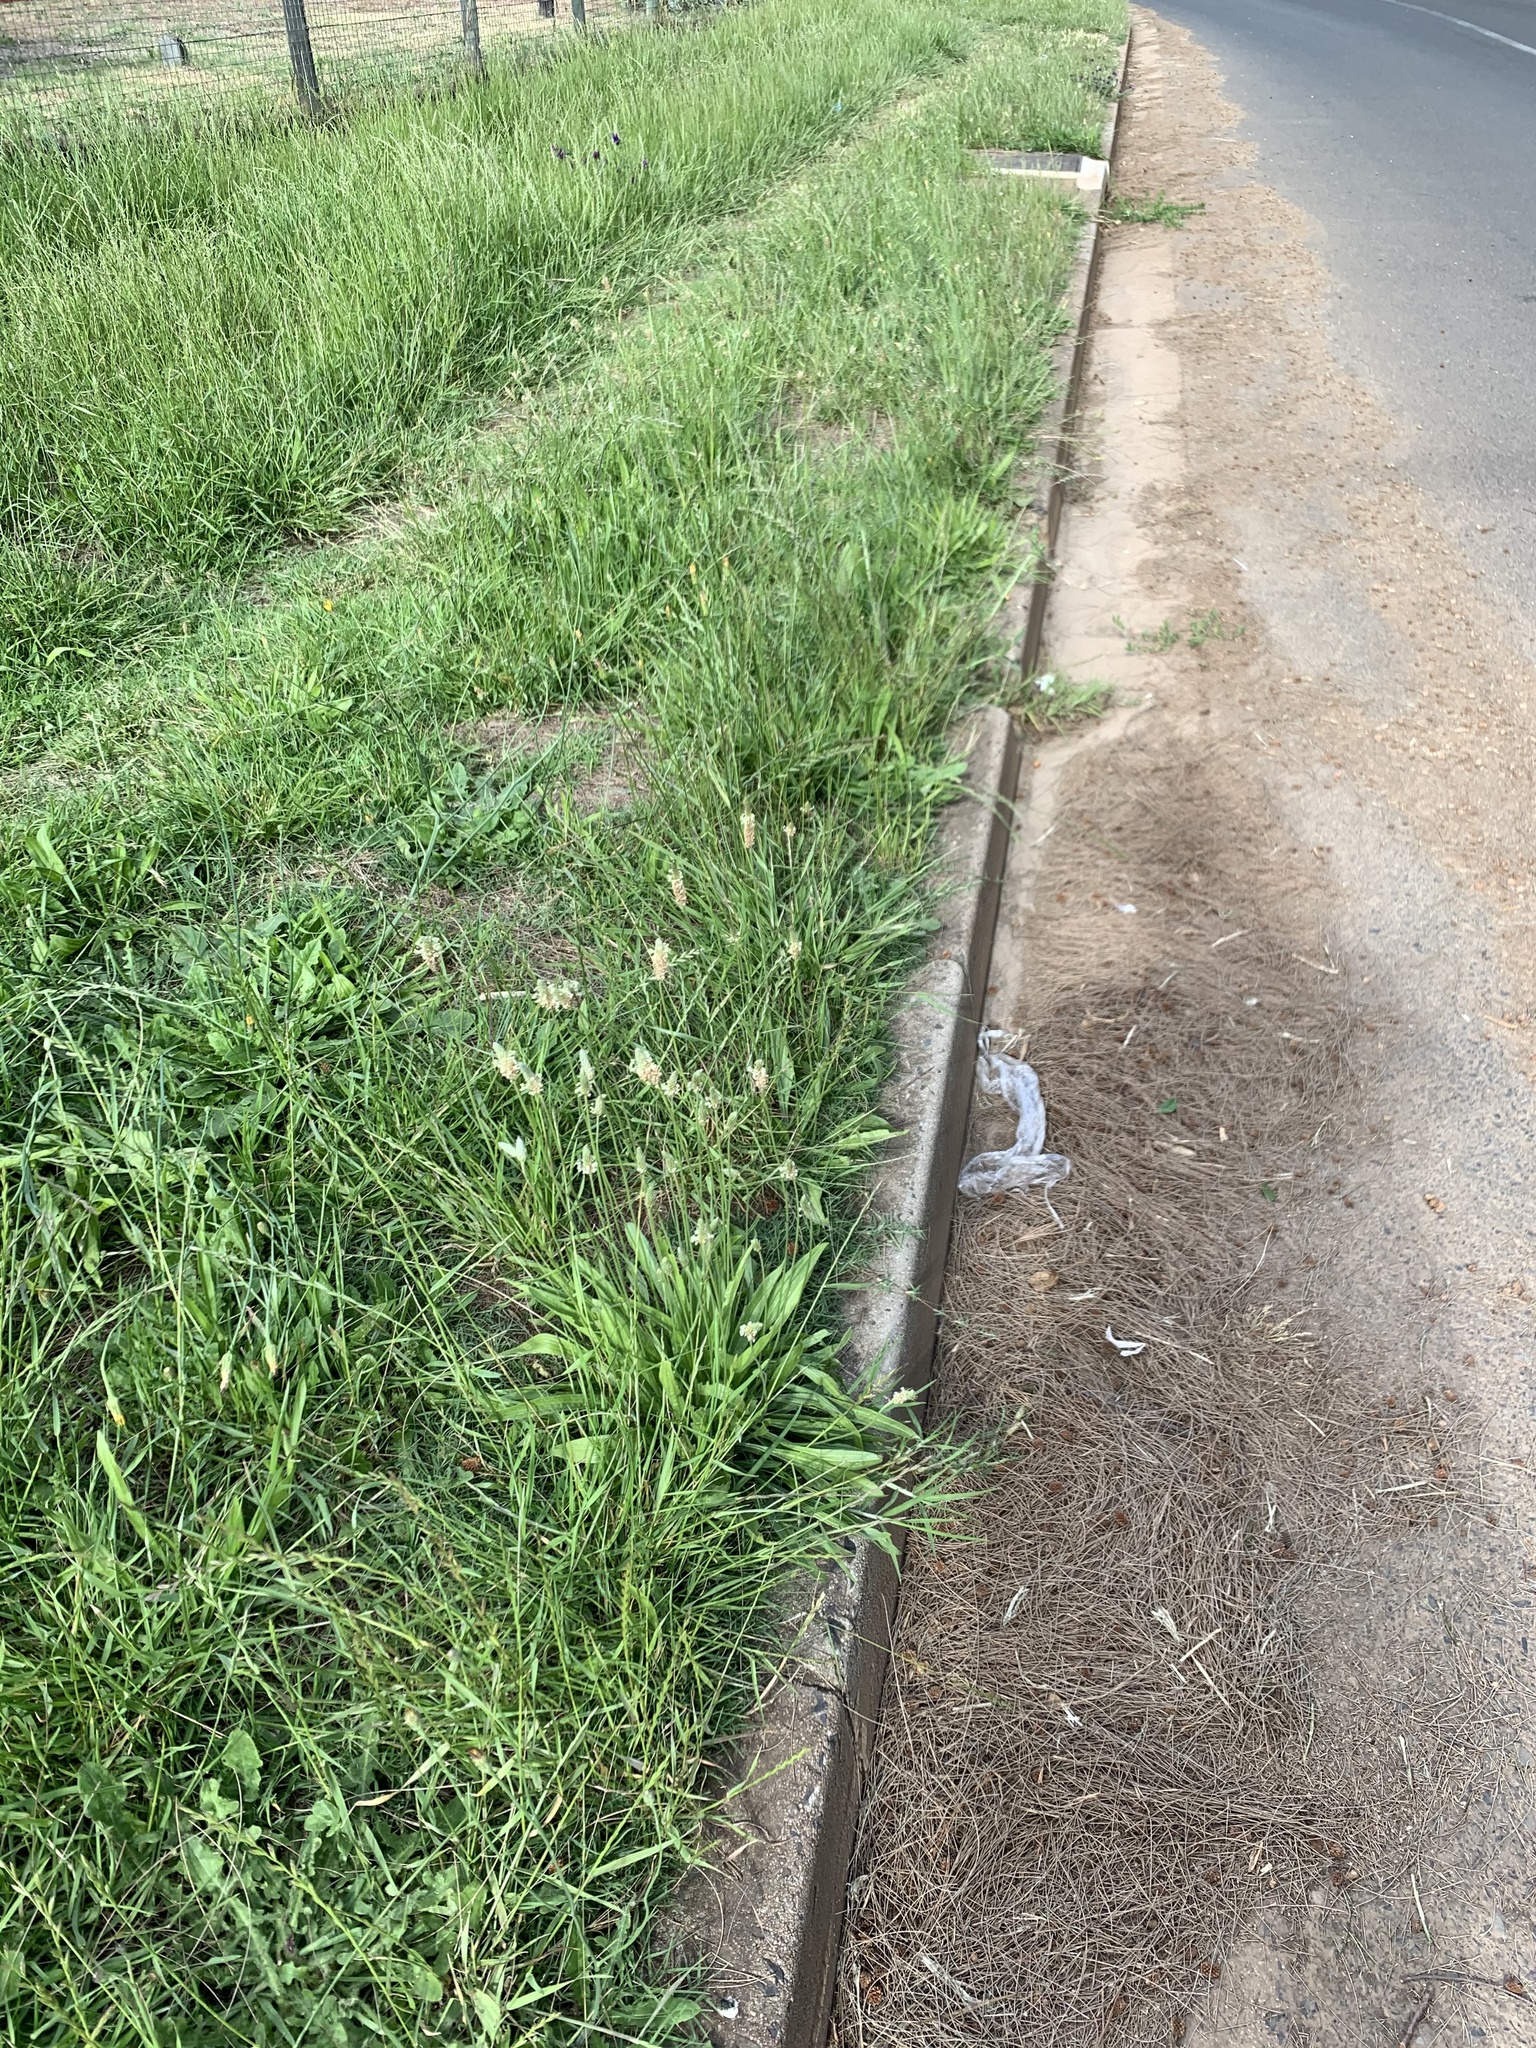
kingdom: Plantae
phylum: Tracheophyta
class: Magnoliopsida
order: Lamiales
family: Plantaginaceae
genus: Plantago
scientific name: Plantago lanceolata
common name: Ribwort plantain
